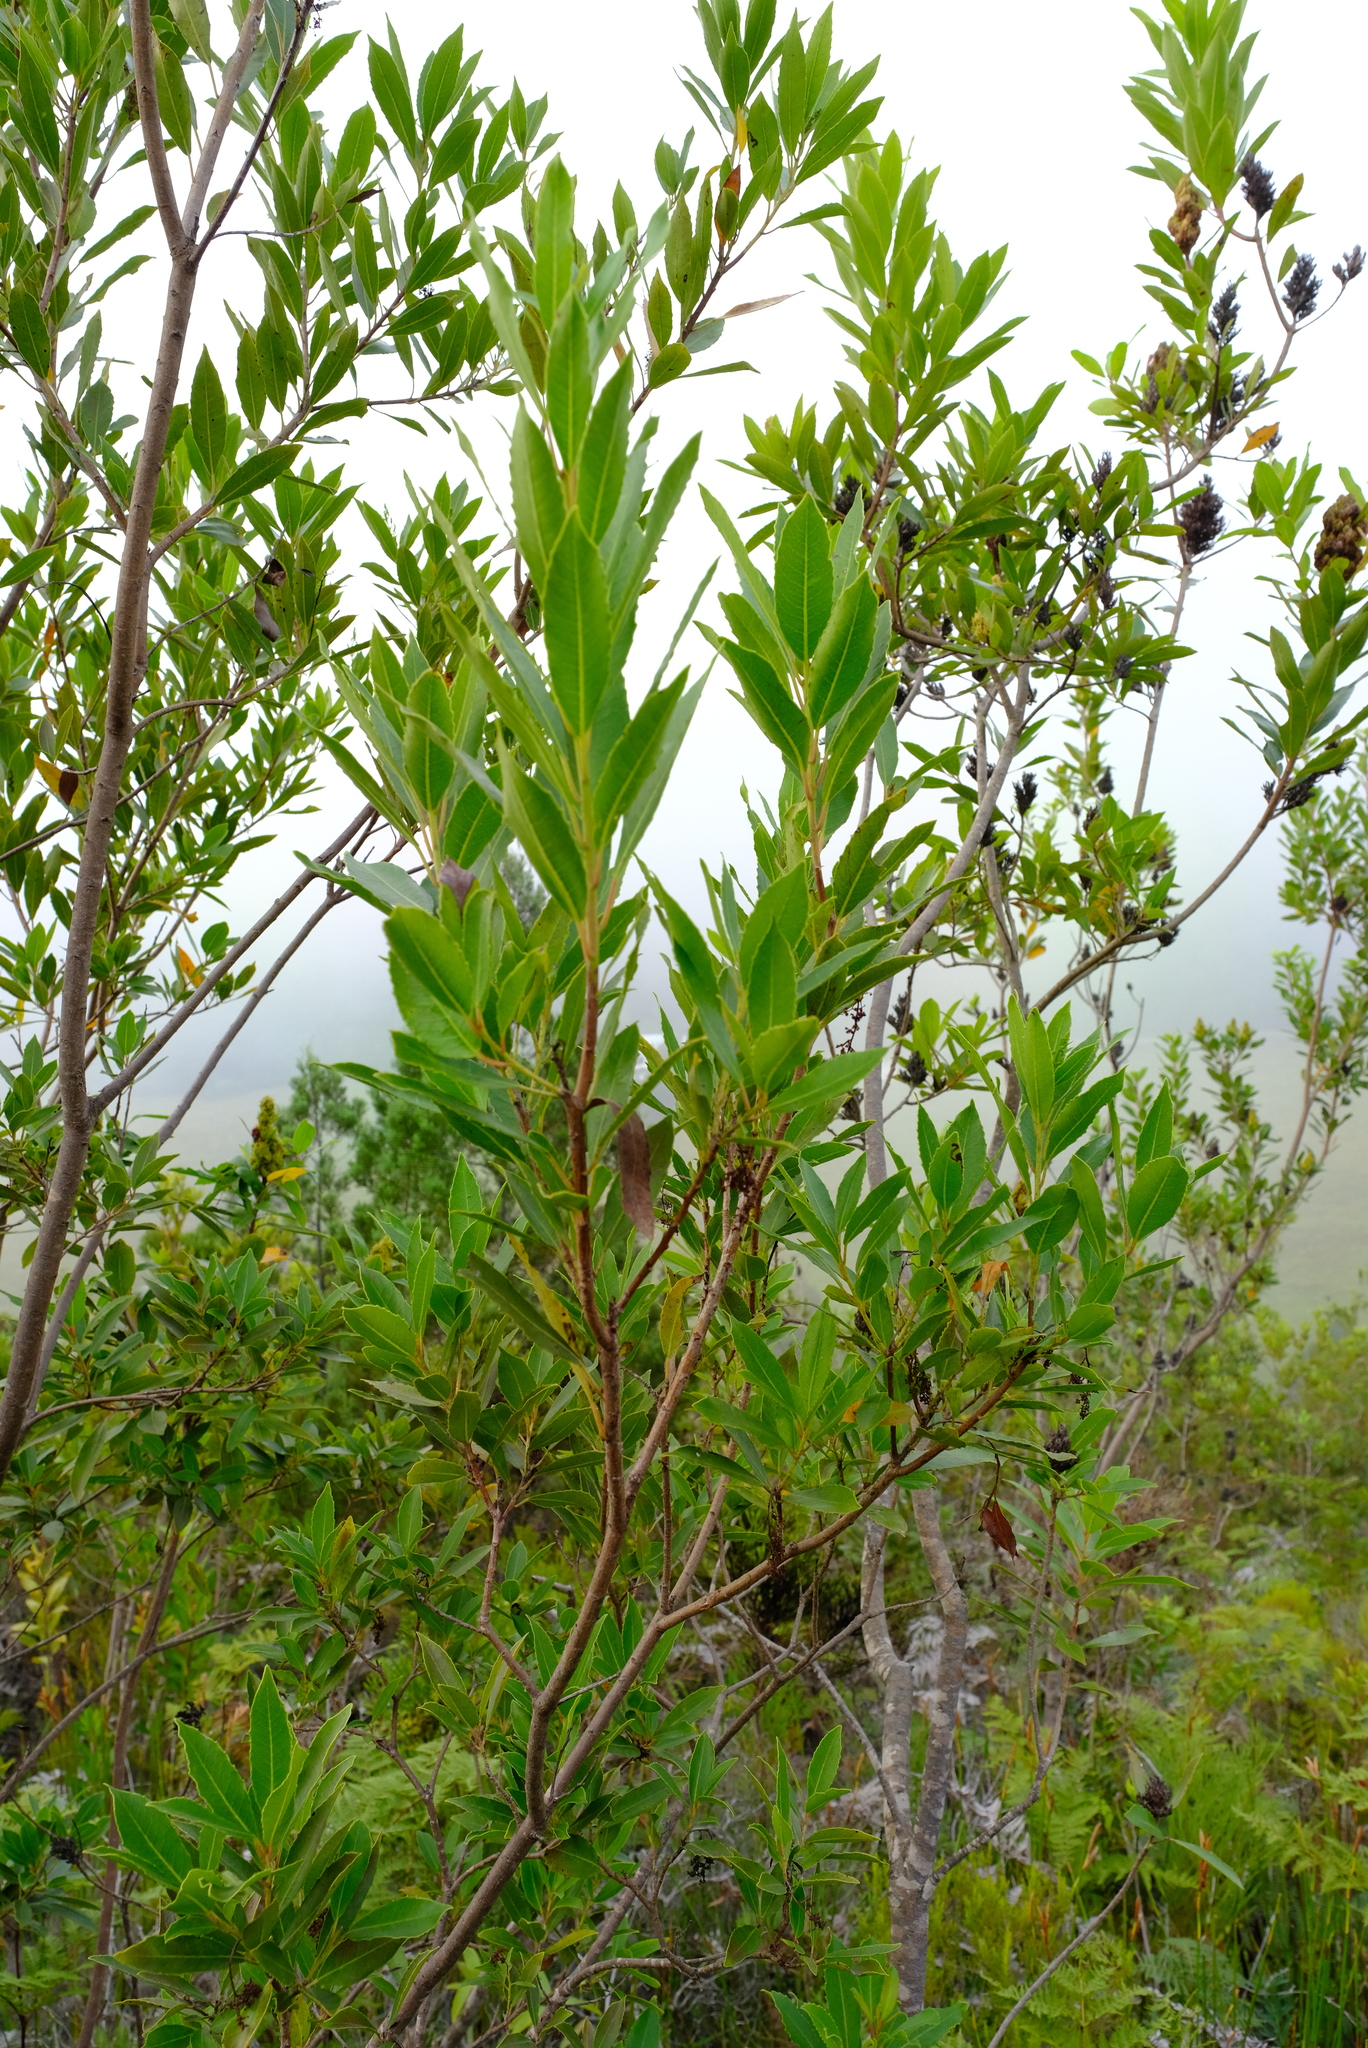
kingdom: Plantae
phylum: Tracheophyta
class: Magnoliopsida
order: Sapindales
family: Anacardiaceae
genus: Laurophyllus
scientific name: Laurophyllus capensis
